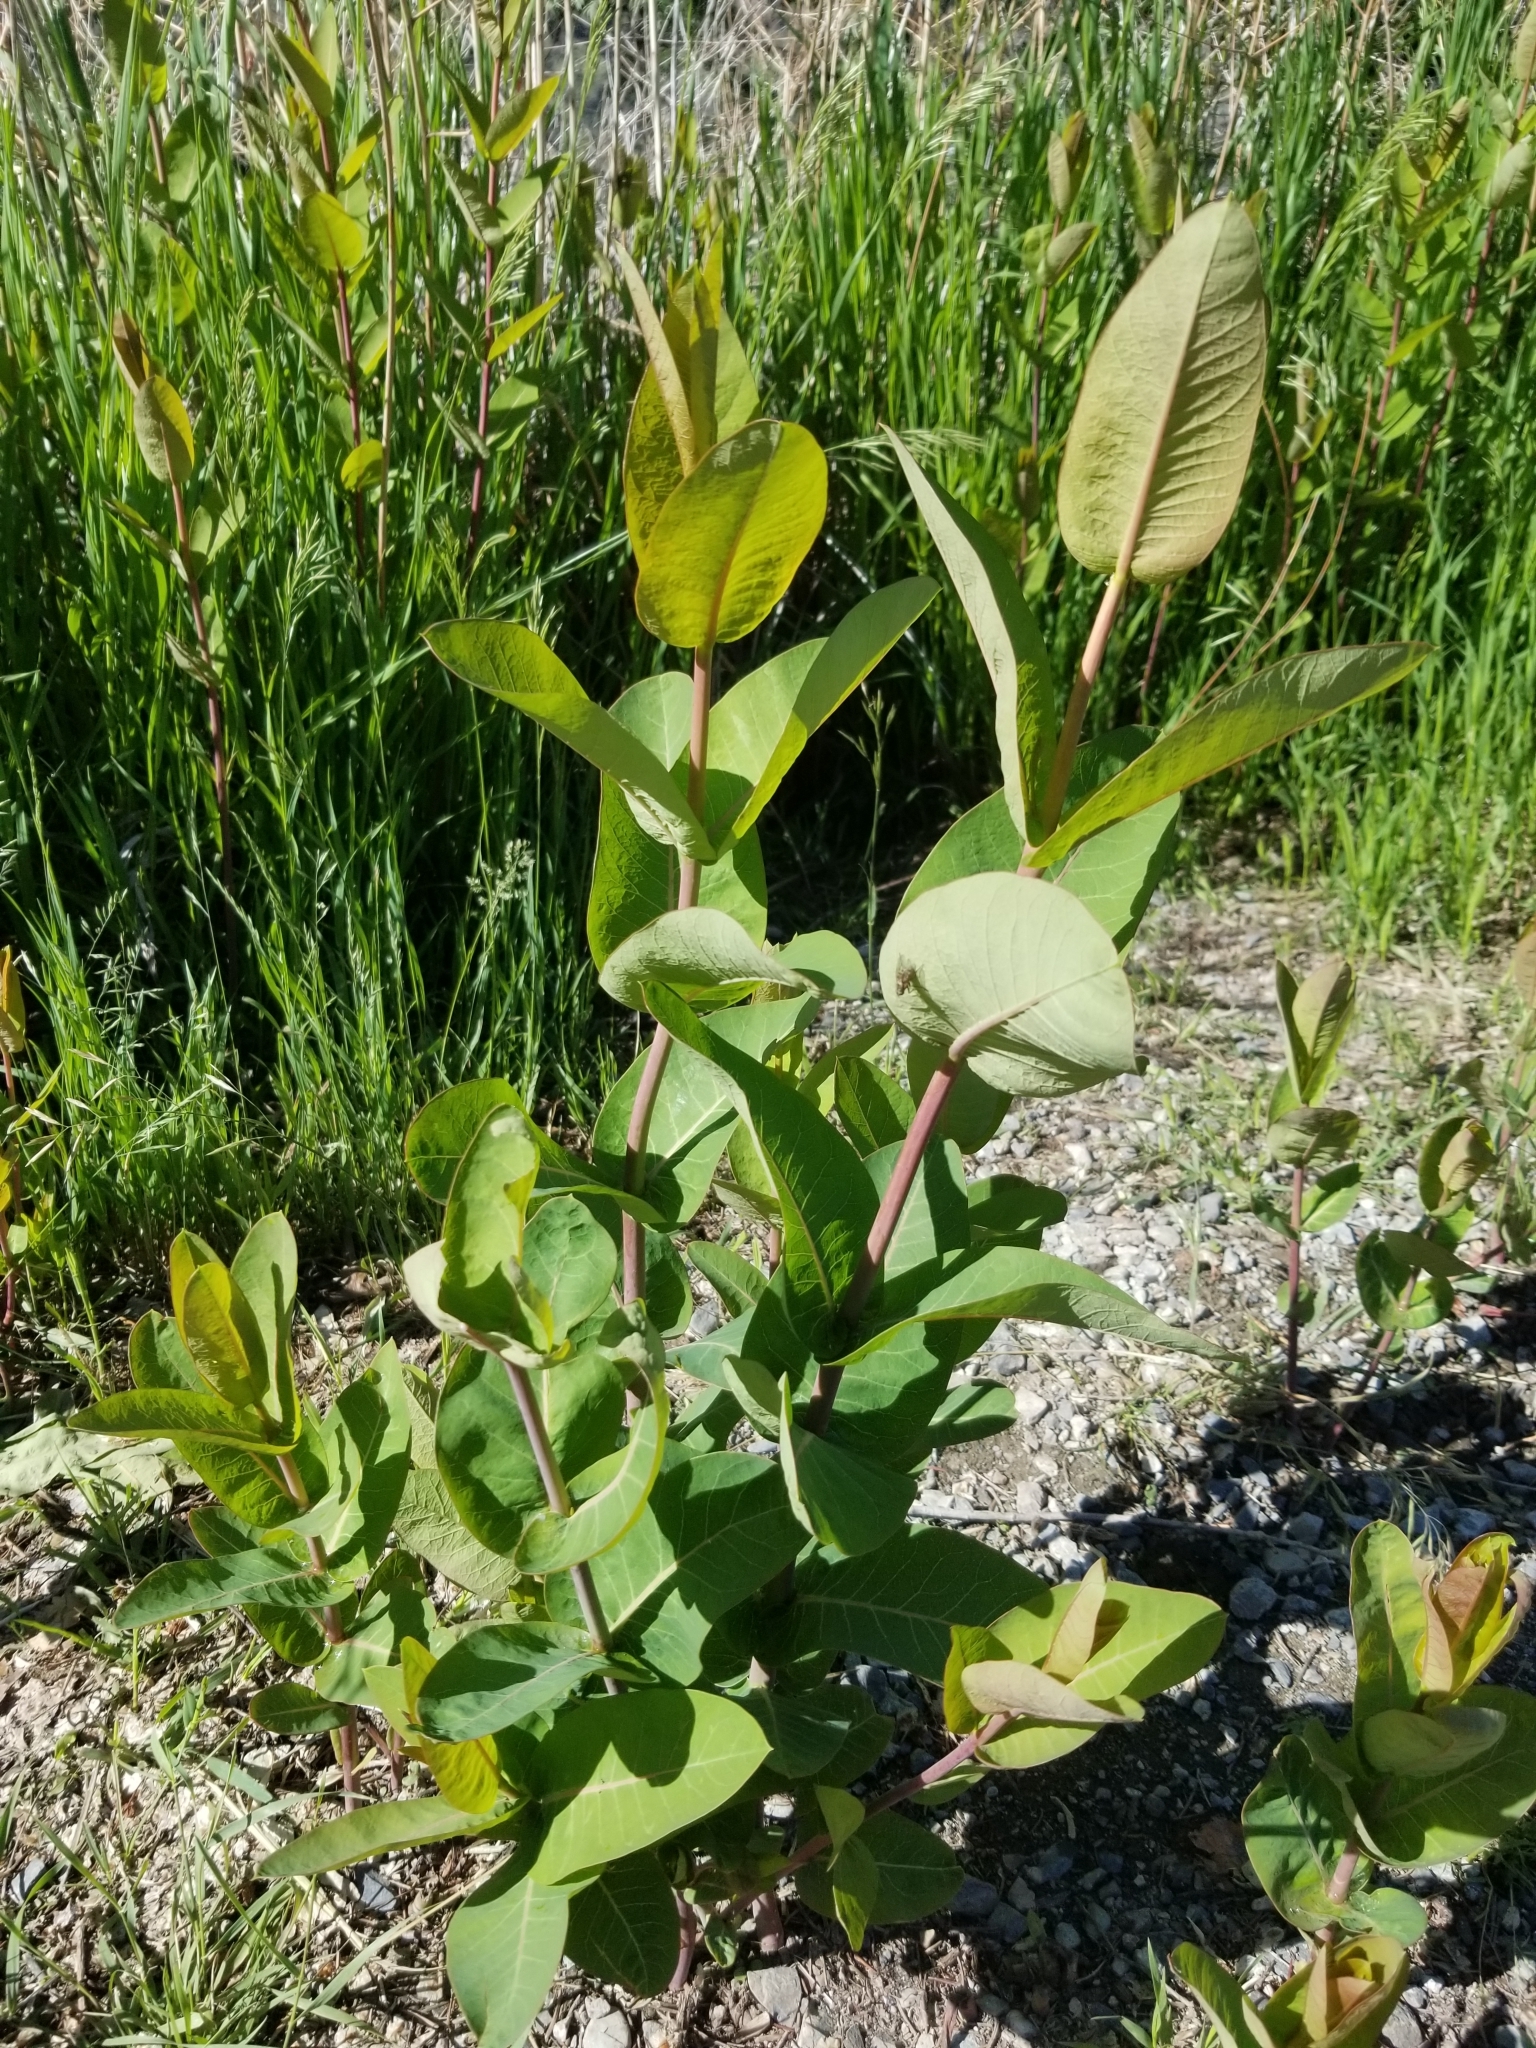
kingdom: Plantae
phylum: Tracheophyta
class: Magnoliopsida
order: Gentianales
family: Apocynaceae
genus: Asclepias
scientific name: Asclepias speciosa
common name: Showy milkweed
